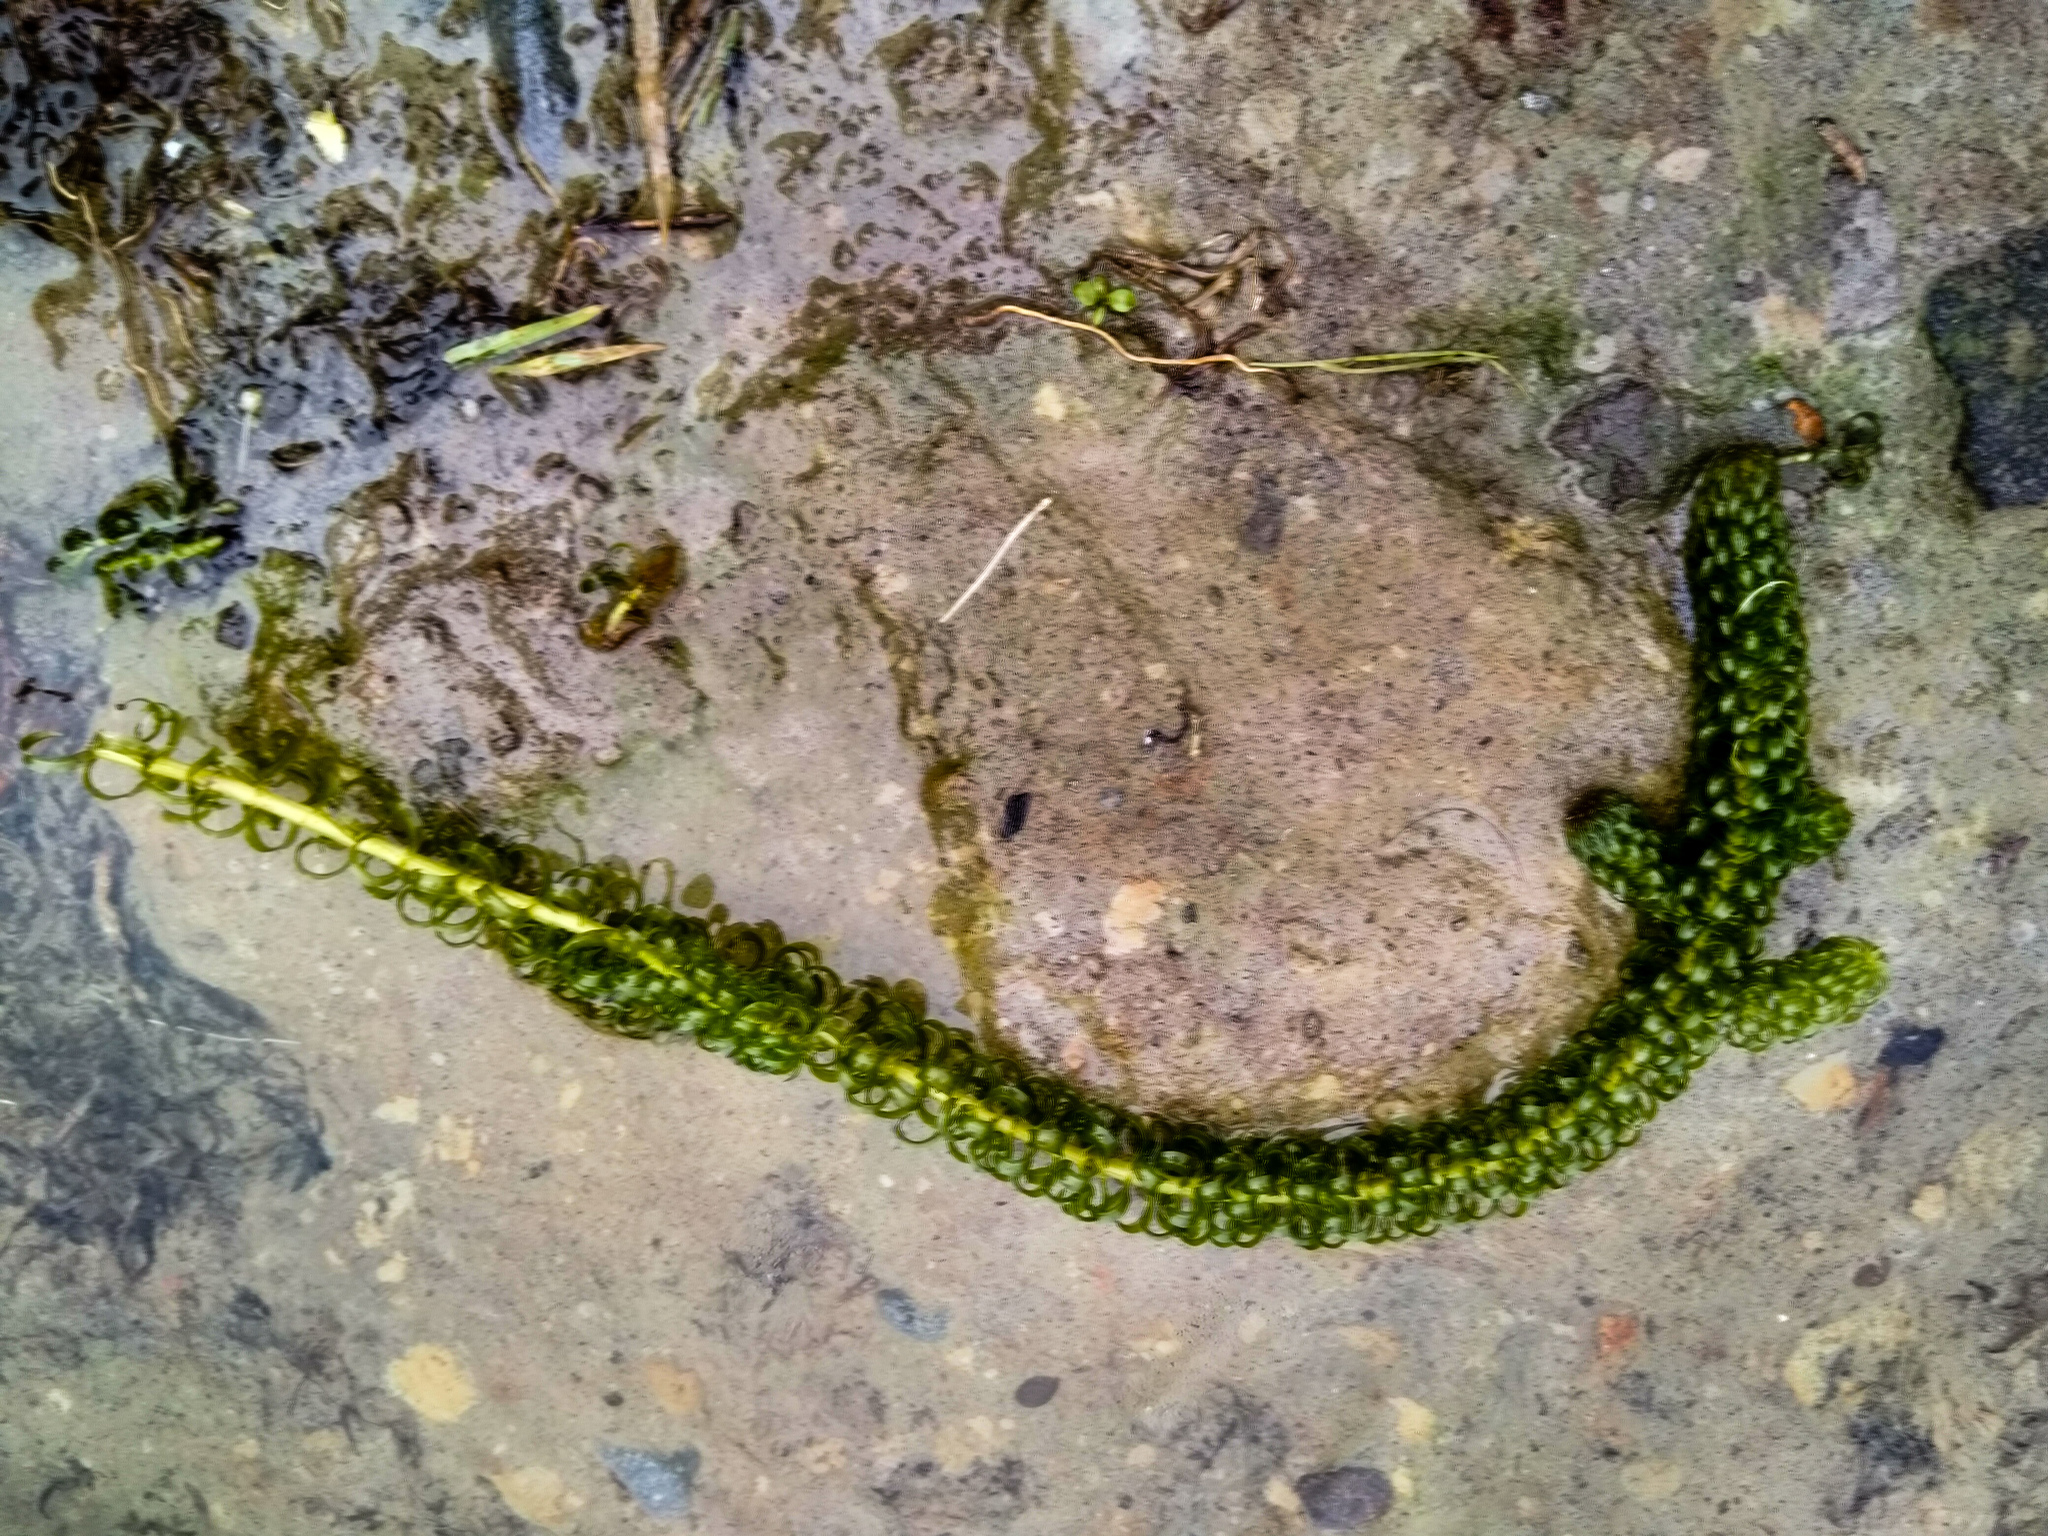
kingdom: Plantae
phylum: Tracheophyta
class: Liliopsida
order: Alismatales
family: Hydrocharitaceae
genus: Lagarosiphon
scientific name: Lagarosiphon major
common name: Curly waterweed
